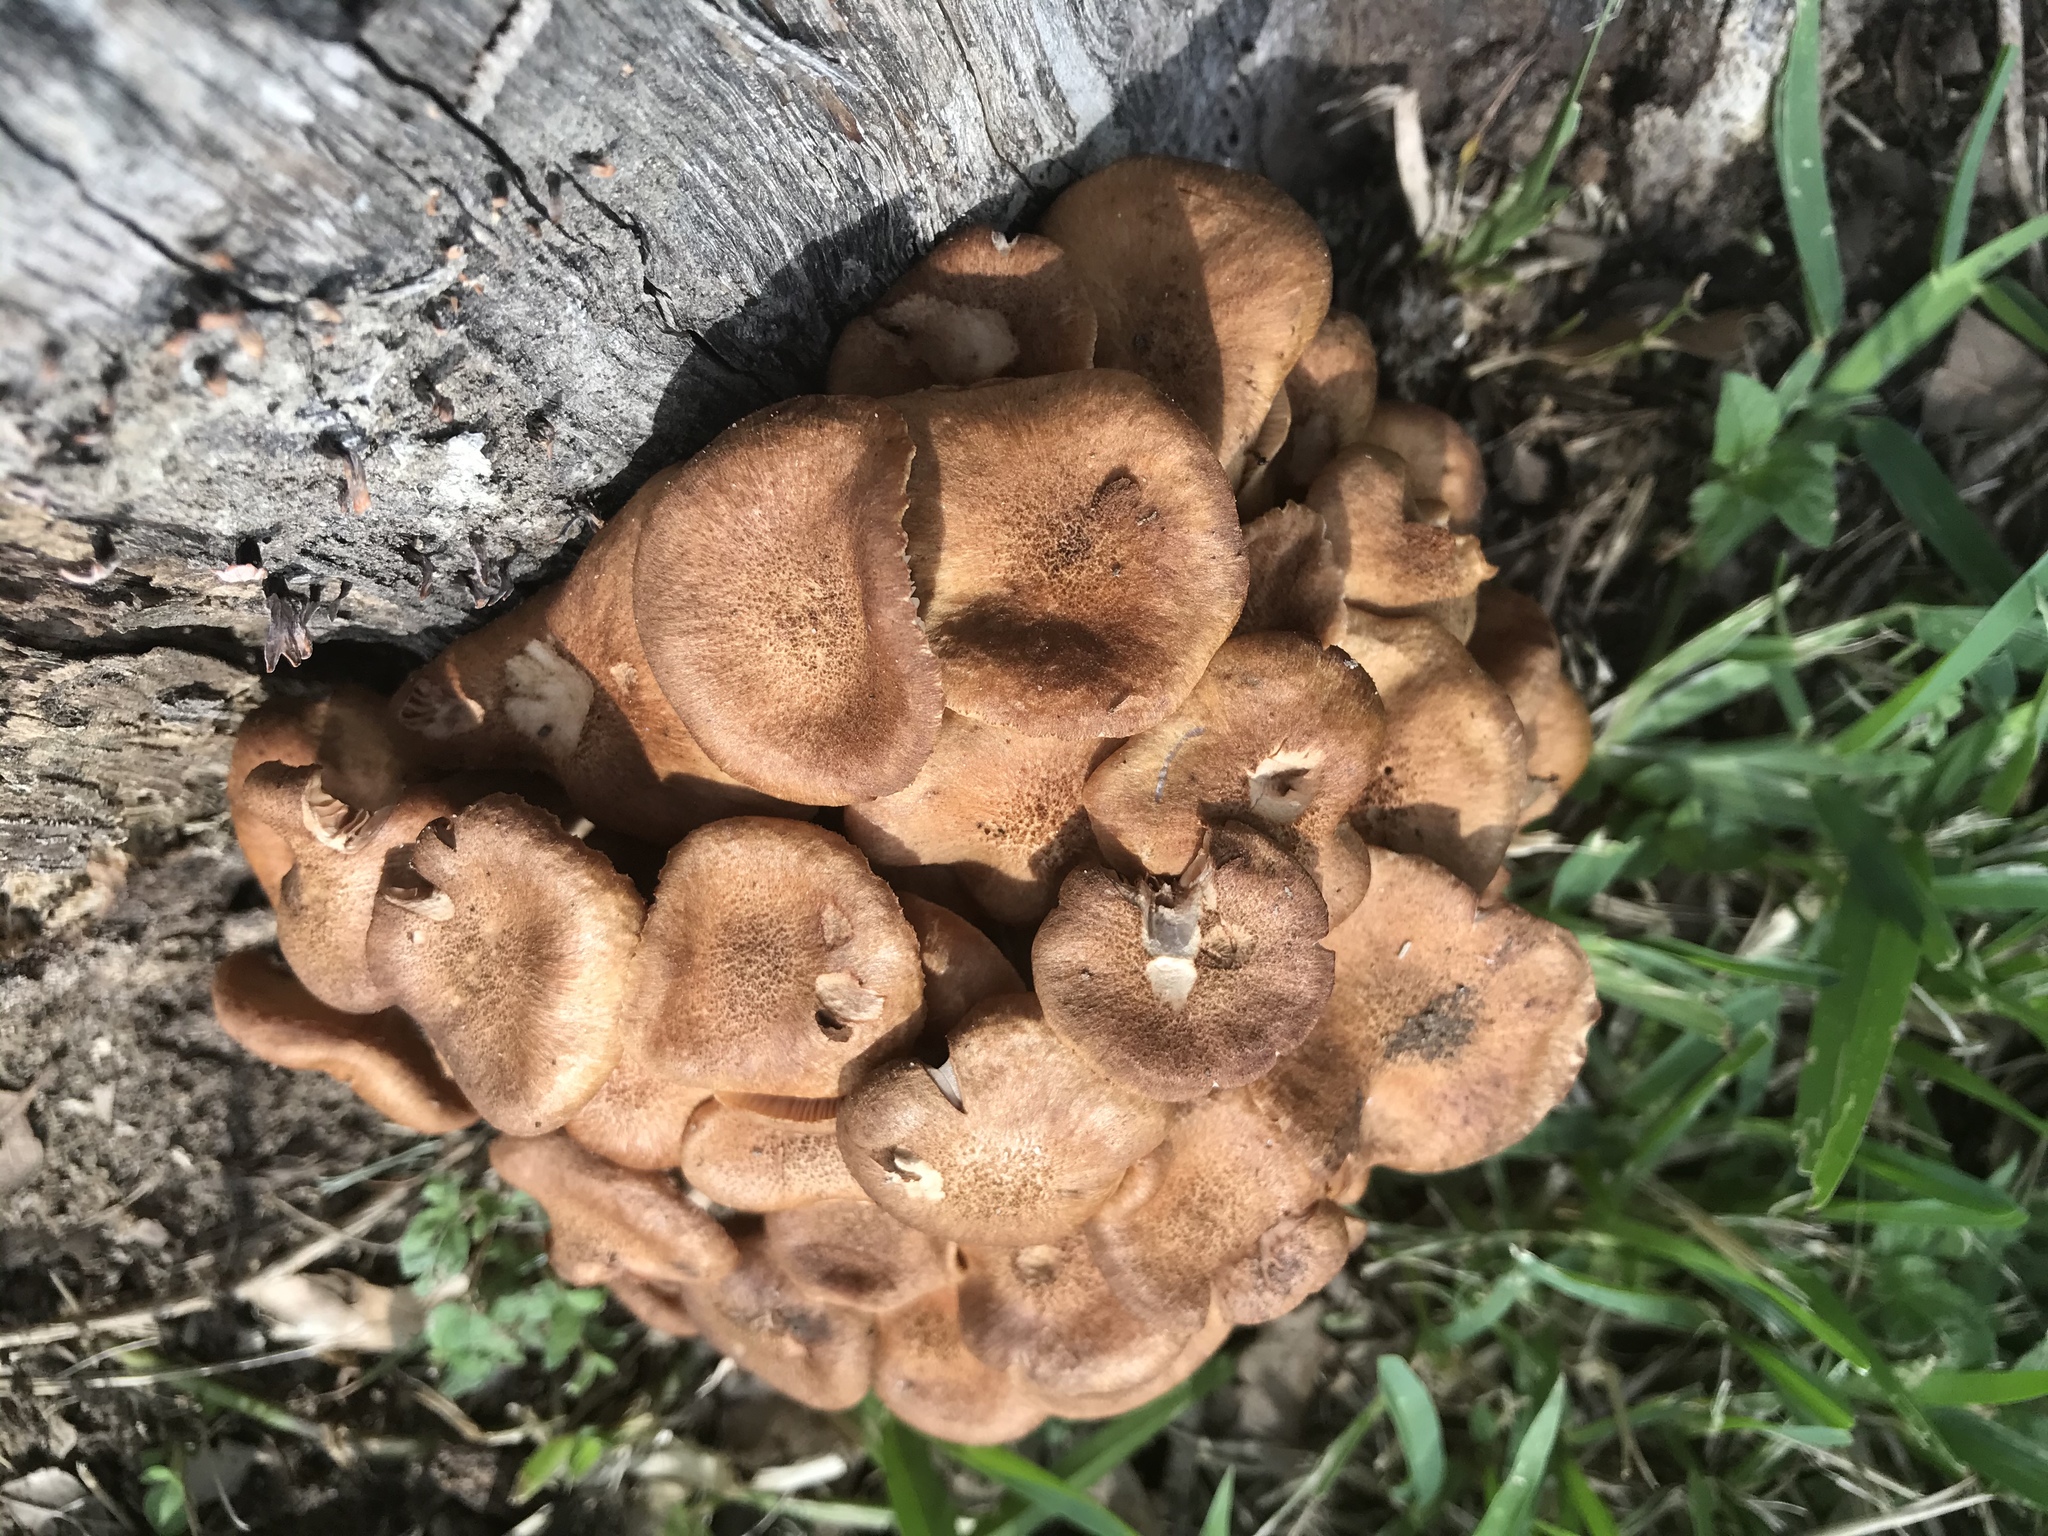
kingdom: Fungi
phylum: Basidiomycota
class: Agaricomycetes
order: Agaricales
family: Physalacriaceae
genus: Desarmillaria
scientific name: Desarmillaria caespitosa
